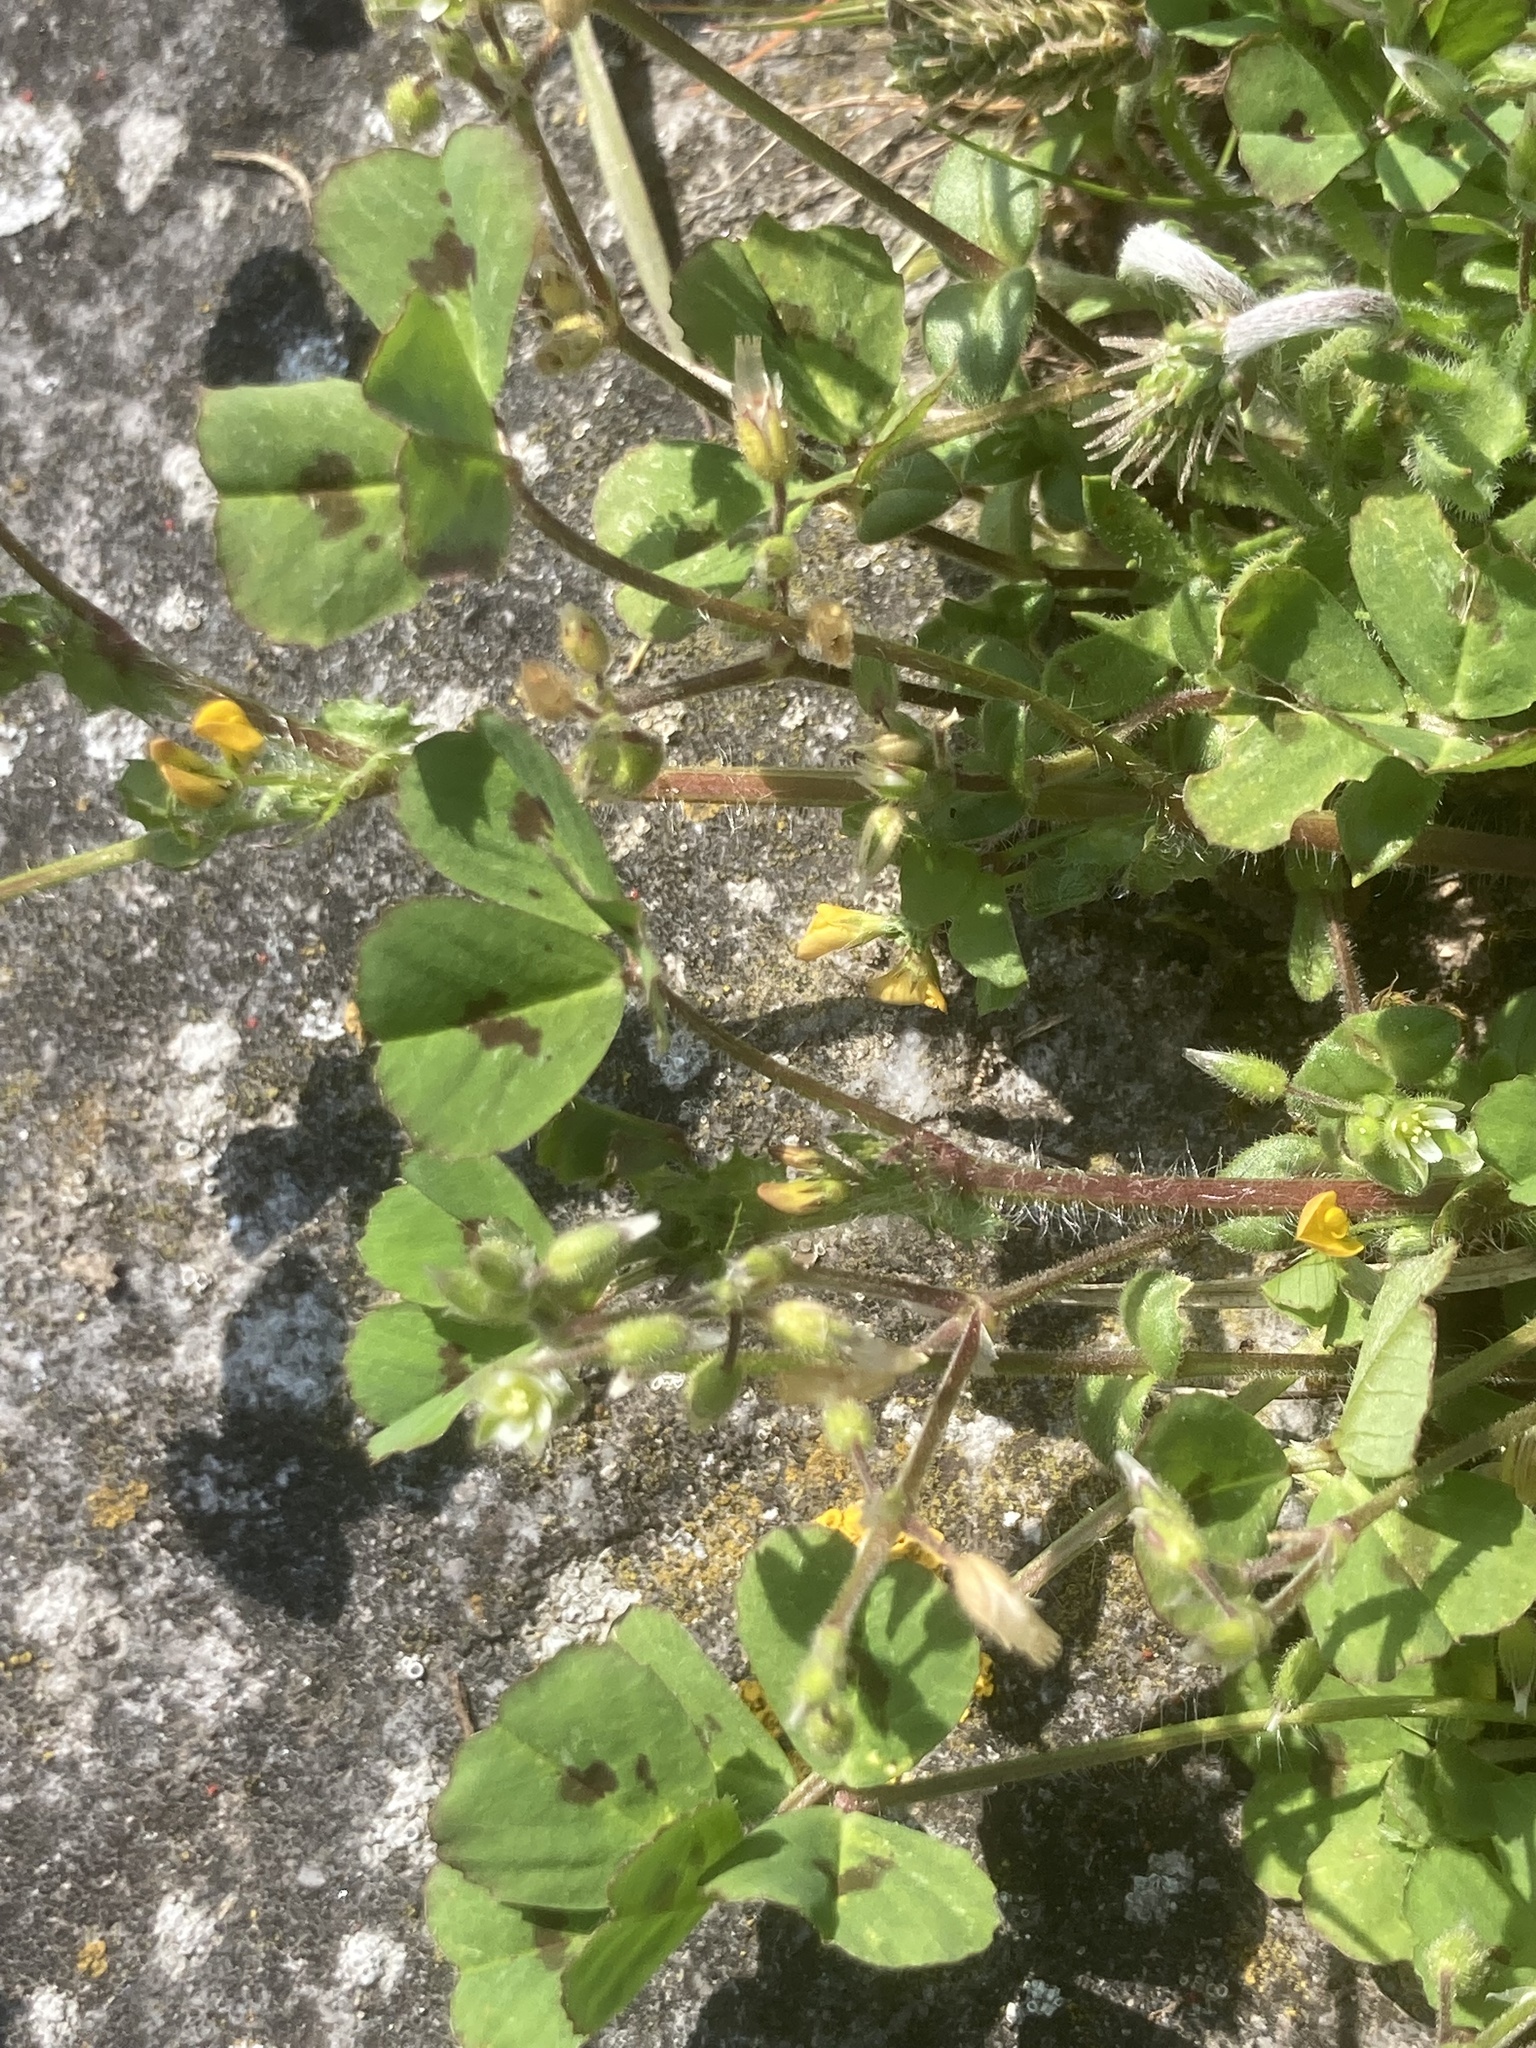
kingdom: Plantae
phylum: Tracheophyta
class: Magnoliopsida
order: Fabales
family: Fabaceae
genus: Medicago
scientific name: Medicago arabica
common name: Spotted medick
